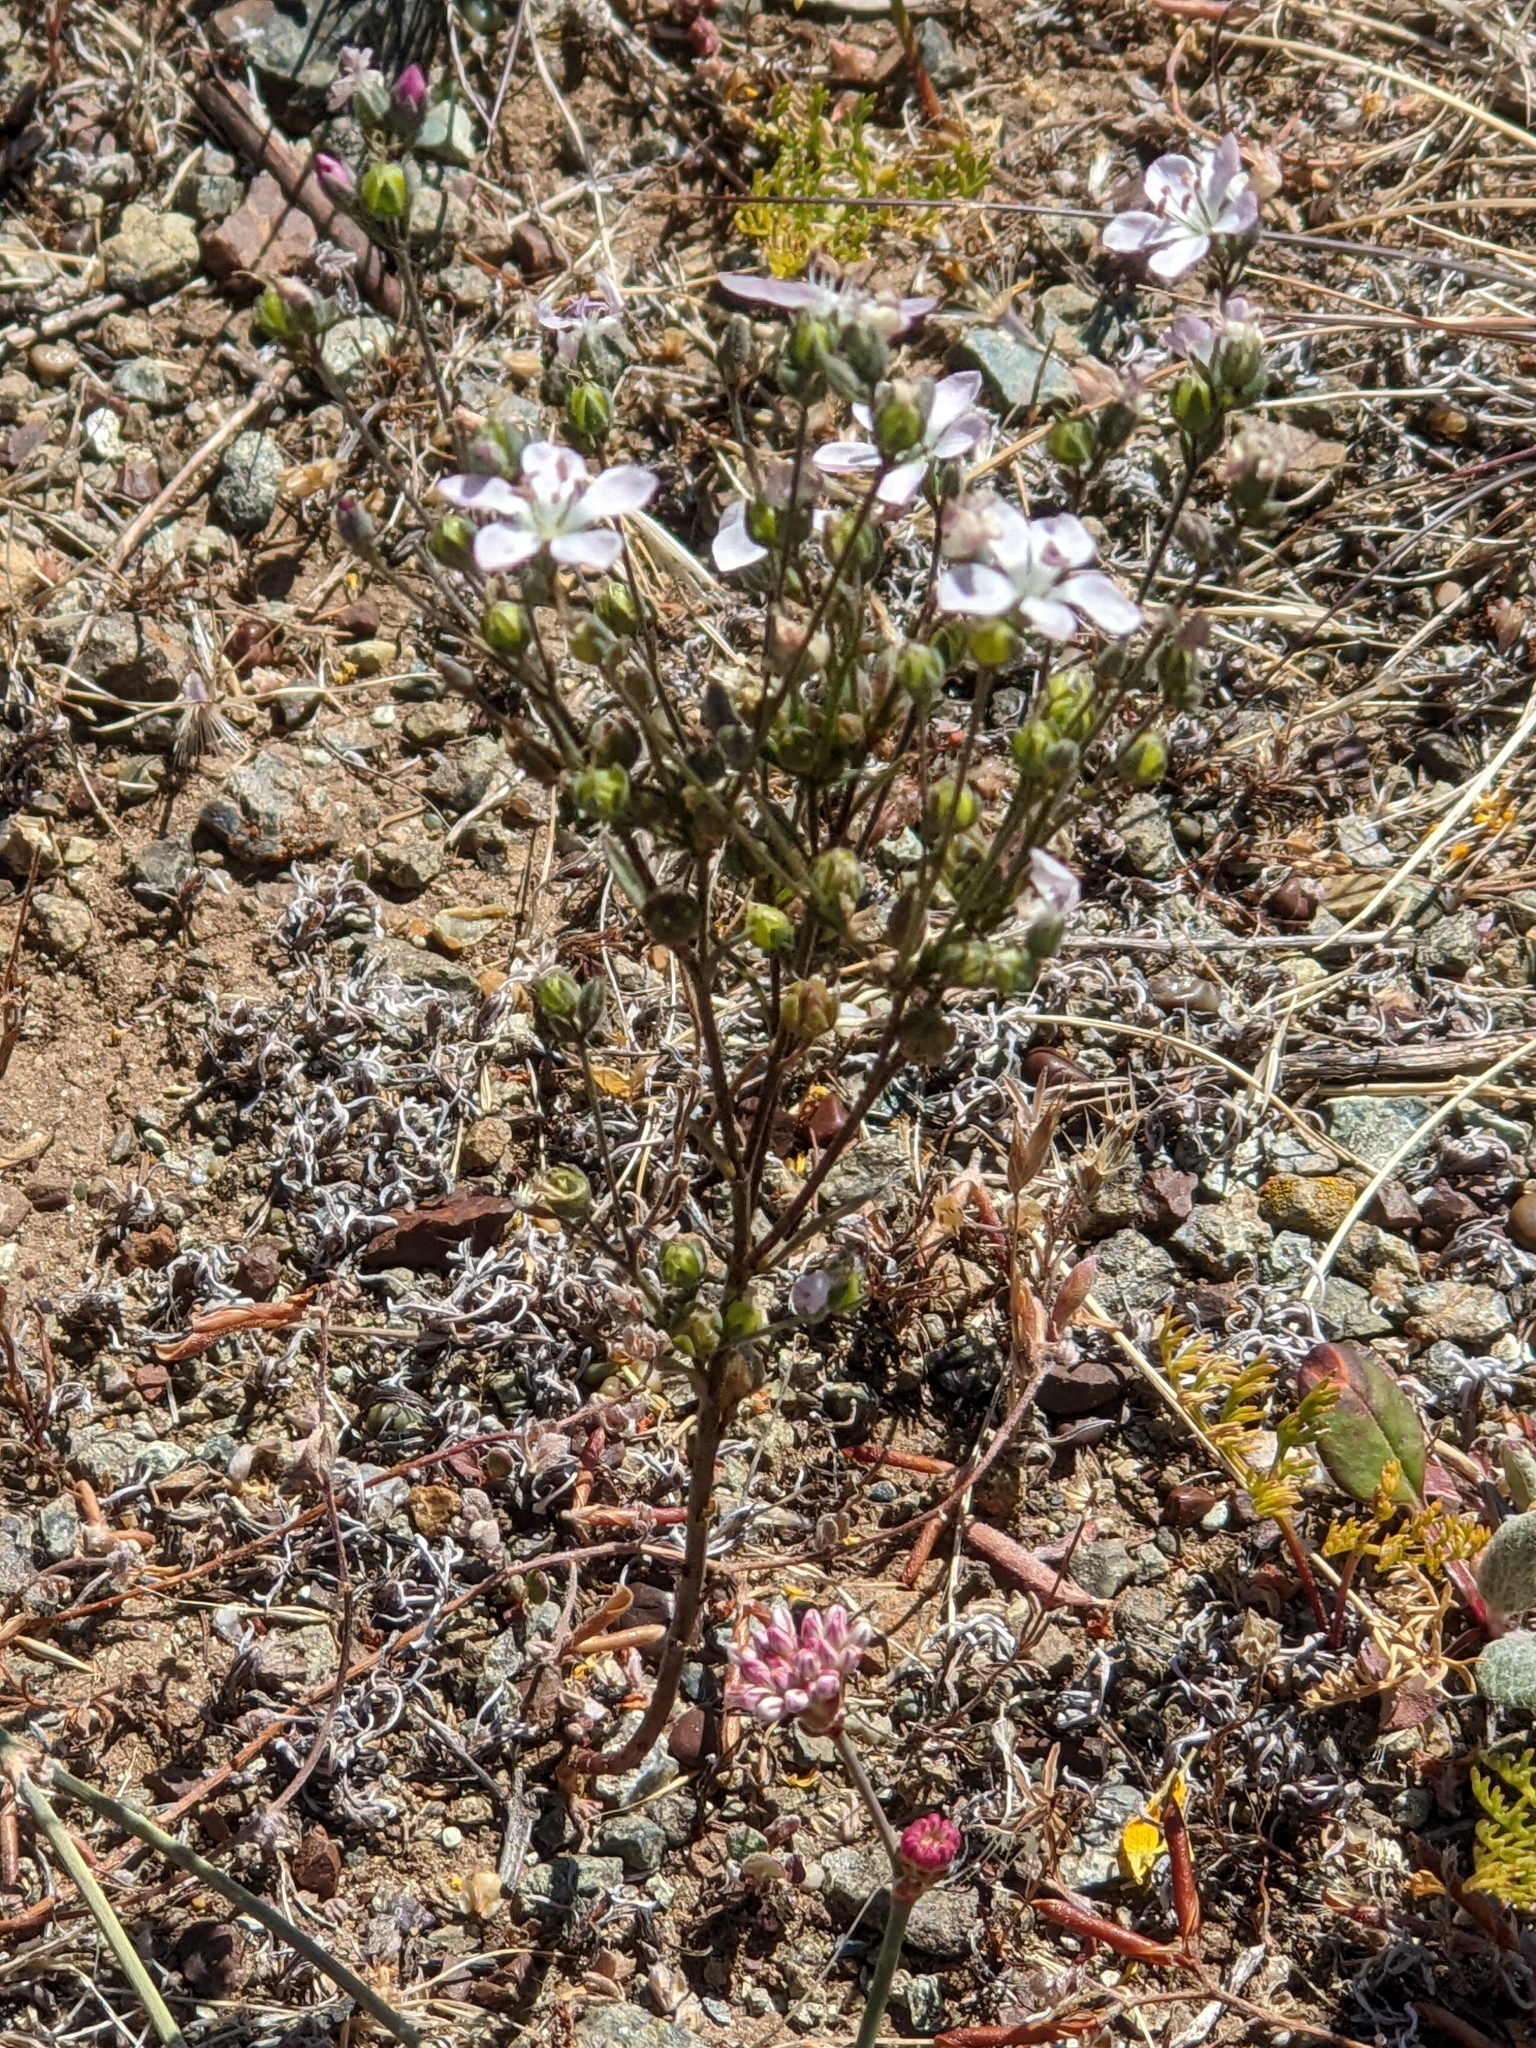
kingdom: Plantae
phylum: Tracheophyta
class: Magnoliopsida
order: Malpighiales
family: Linaceae
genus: Hesperolinon
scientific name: Hesperolinon congestum
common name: Marin dwarf-flax
